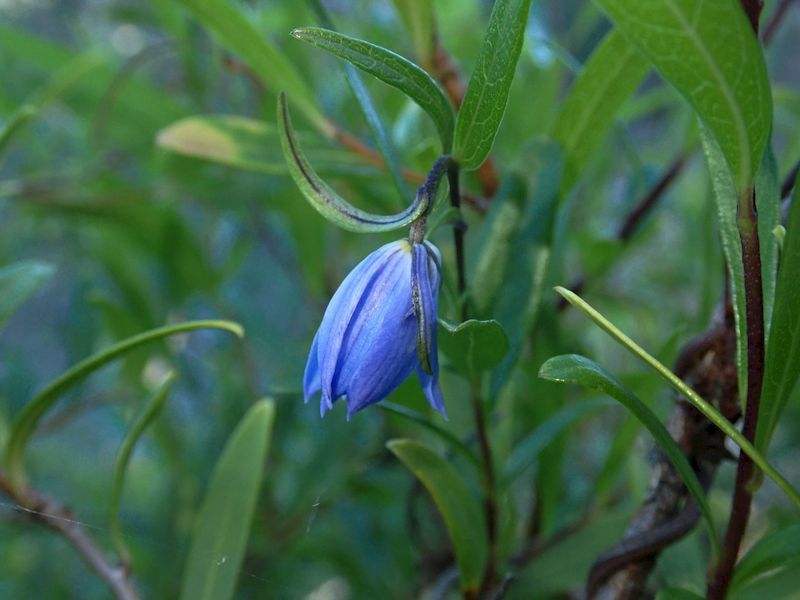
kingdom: Plantae
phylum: Tracheophyta
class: Magnoliopsida
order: Apiales
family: Pittosporaceae
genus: Billardiera
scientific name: Billardiera fusiformis
